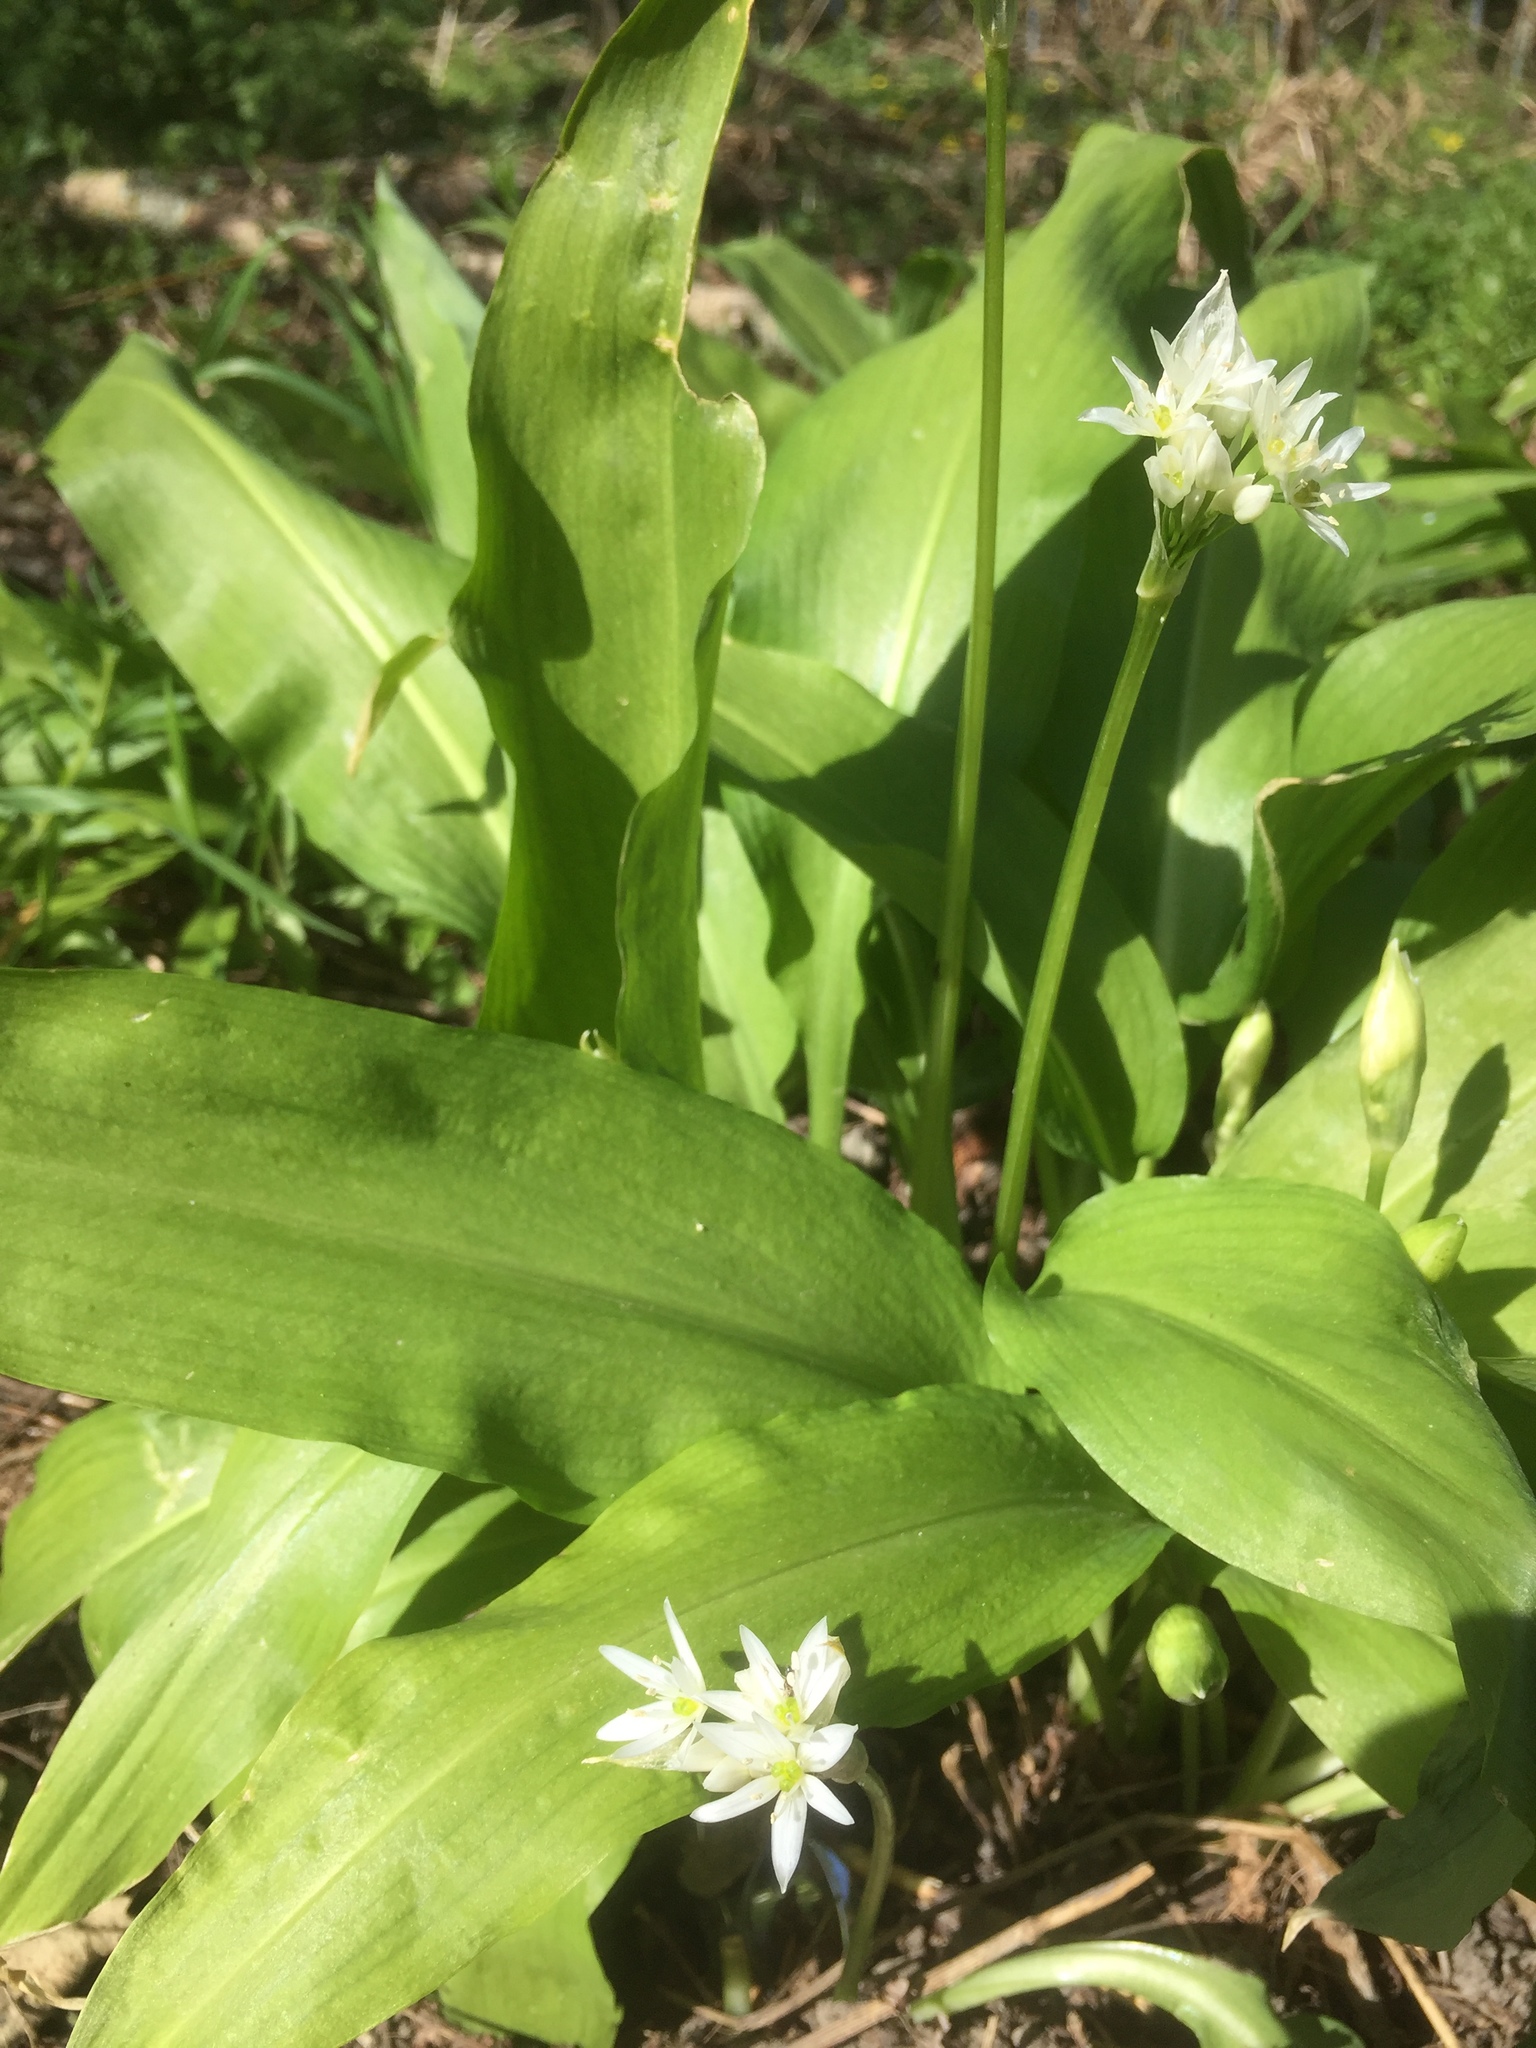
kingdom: Plantae
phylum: Tracheophyta
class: Liliopsida
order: Asparagales
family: Amaryllidaceae
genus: Allium
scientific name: Allium ursinum
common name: Ramsons
